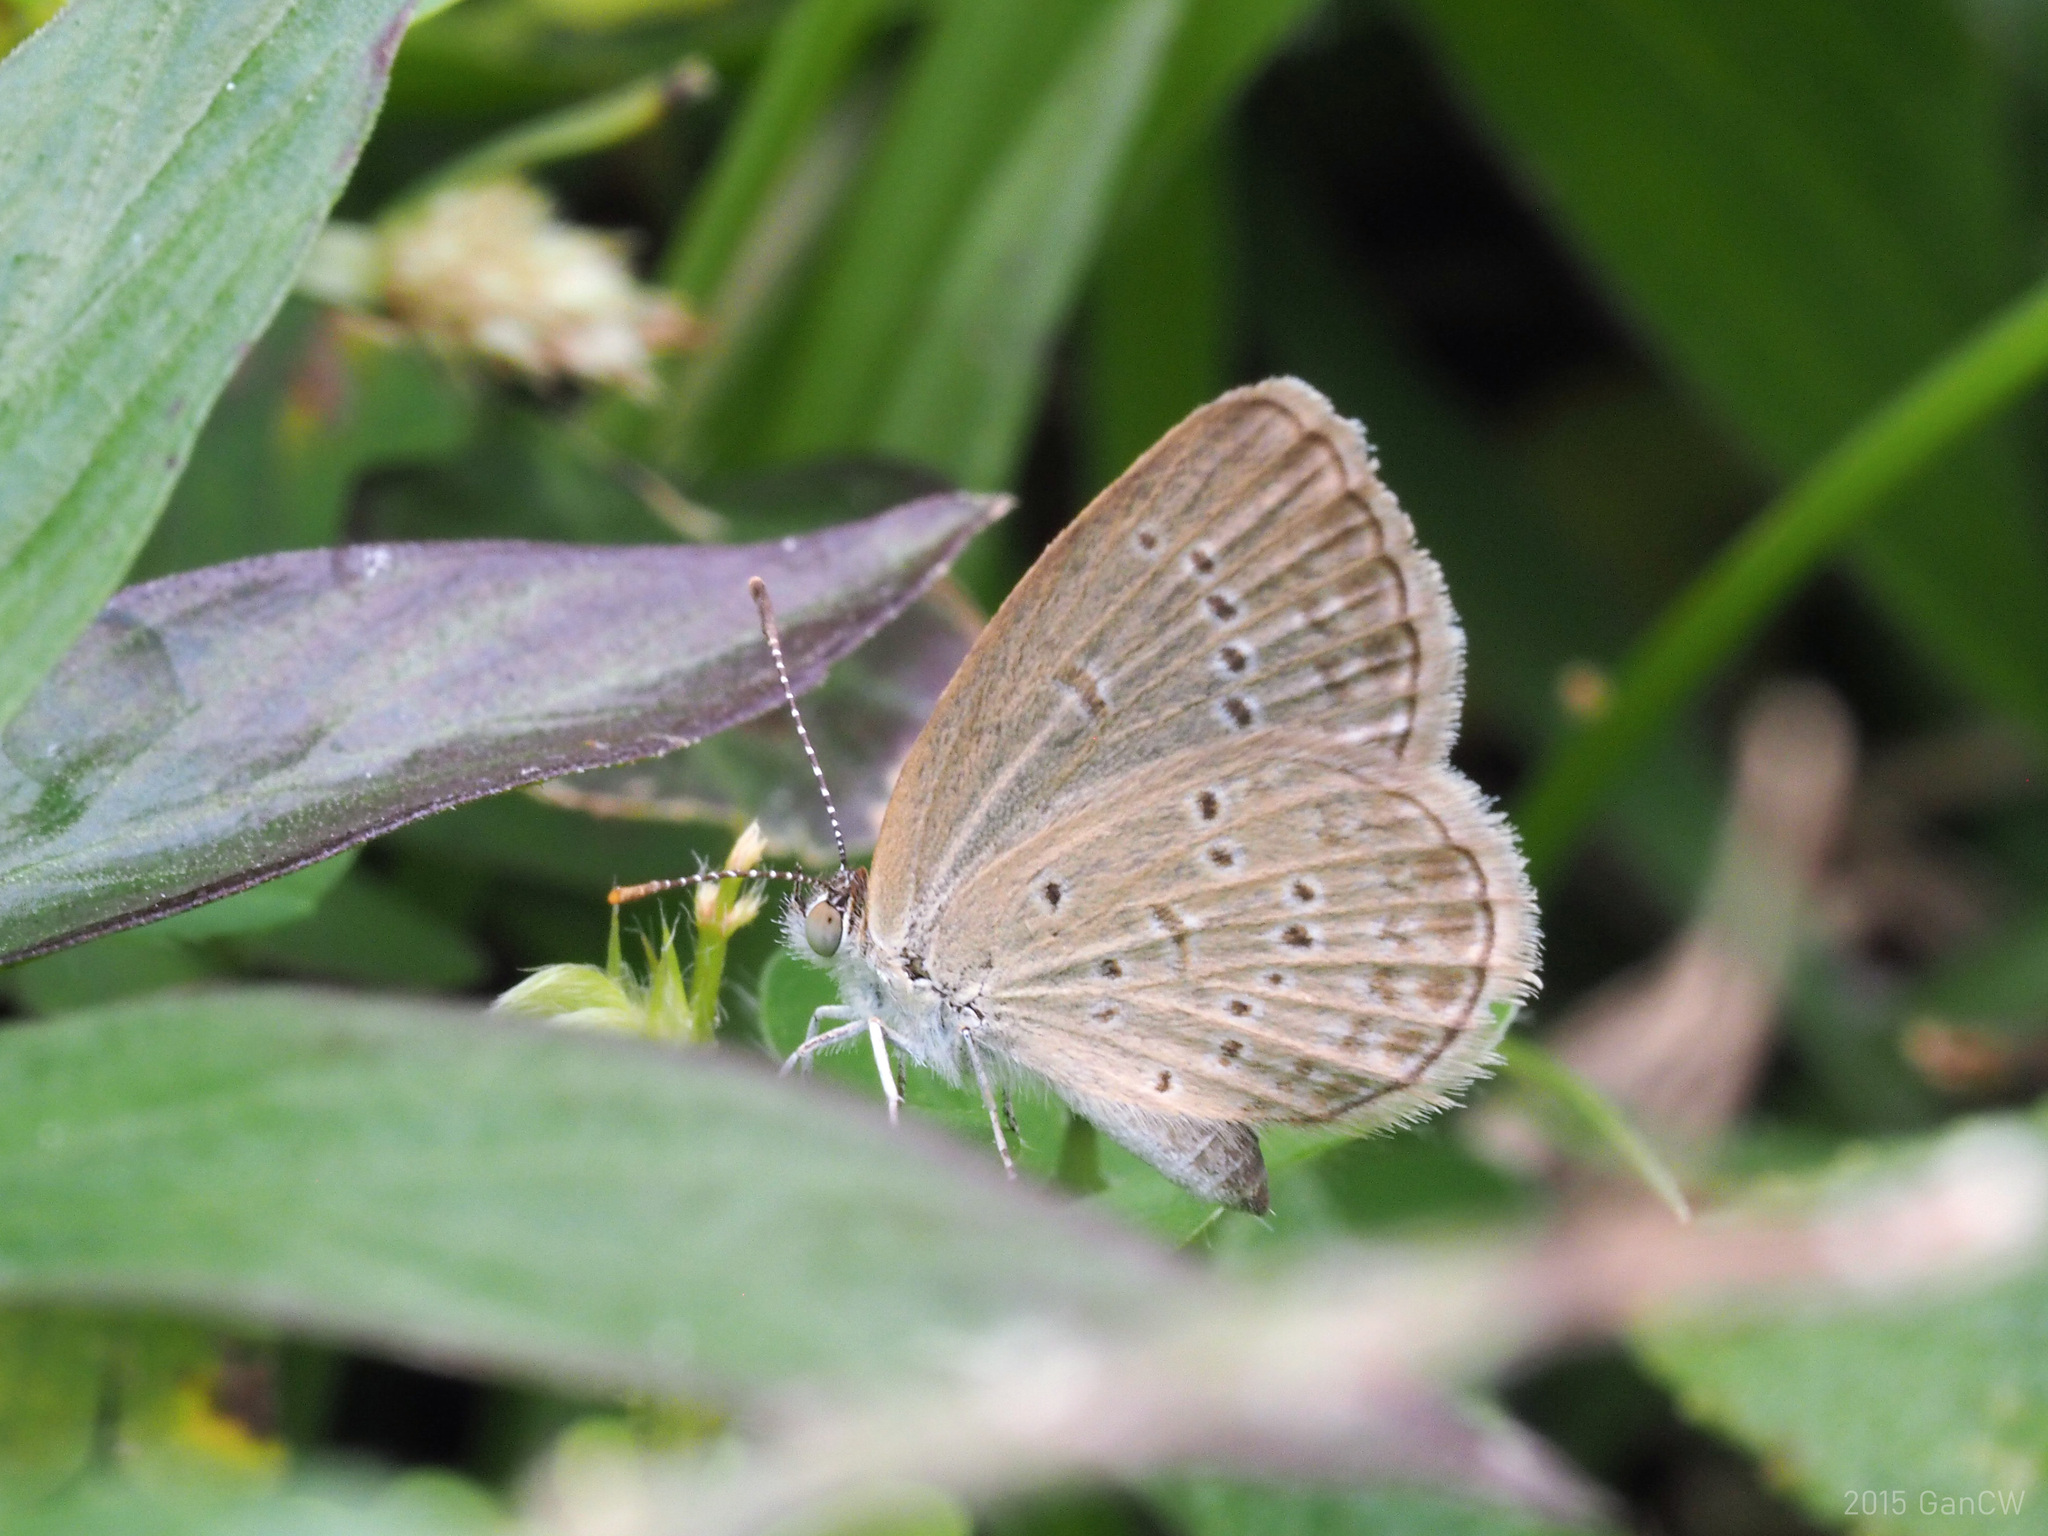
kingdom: Animalia
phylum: Arthropoda
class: Insecta
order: Lepidoptera
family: Lycaenidae
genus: Zizina
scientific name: Zizina otis
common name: Lesser grass blue
